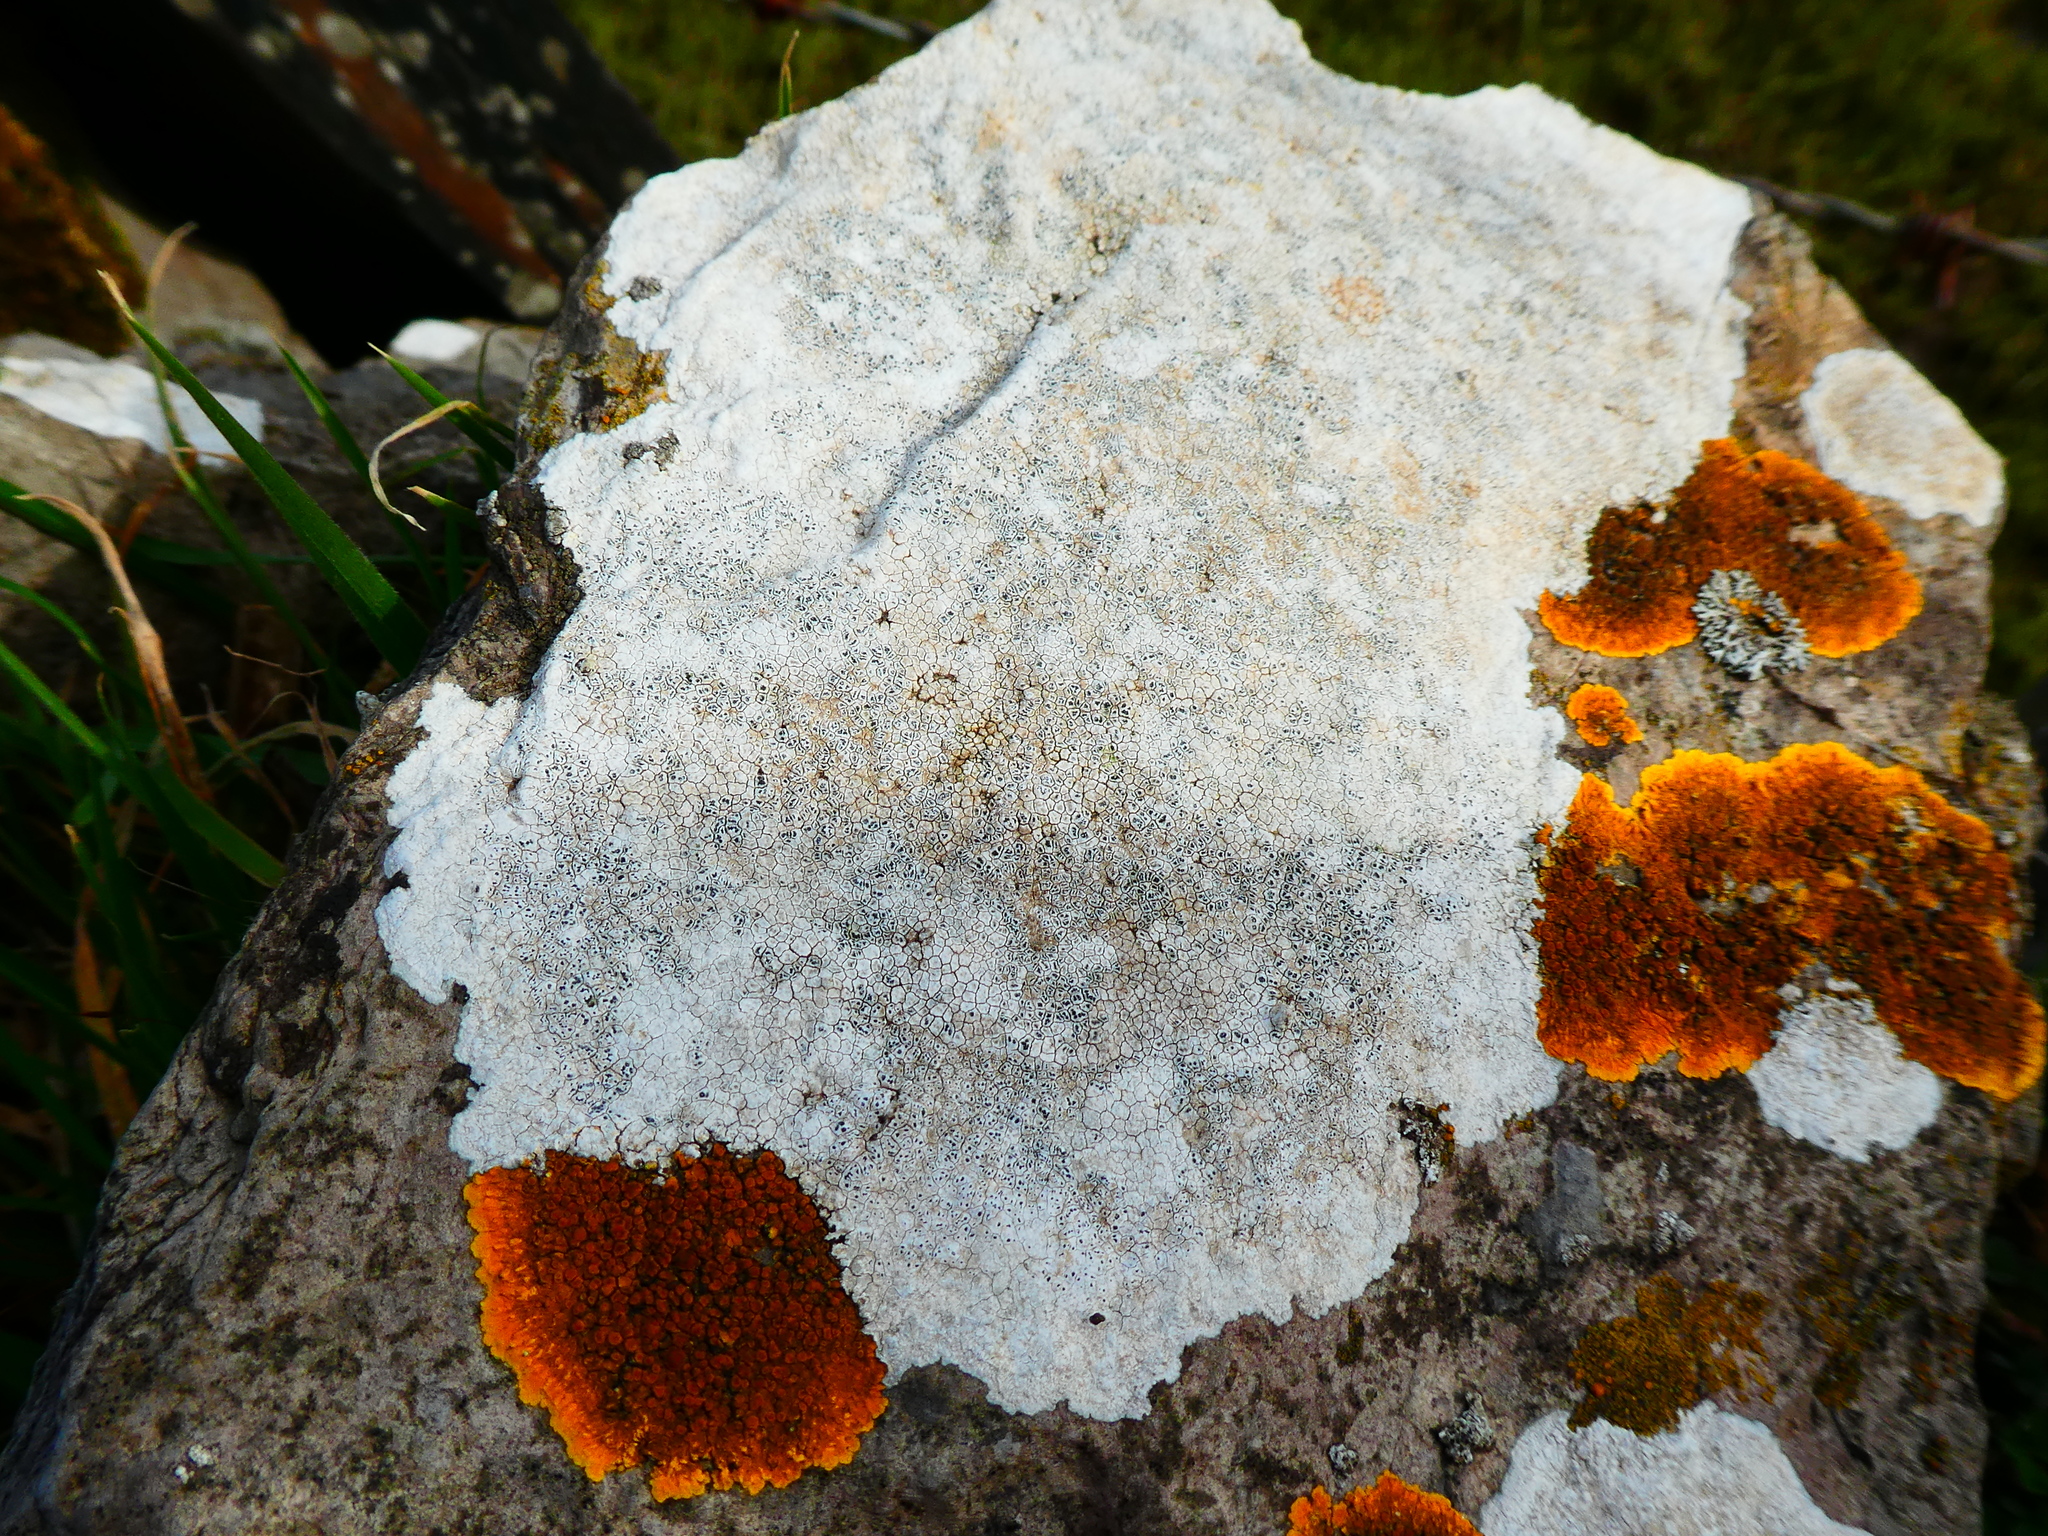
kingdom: Fungi
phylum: Ascomycota
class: Lecanoromycetes
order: Pertusariales
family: Megasporaceae
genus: Circinaria
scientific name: Circinaria calcarea
